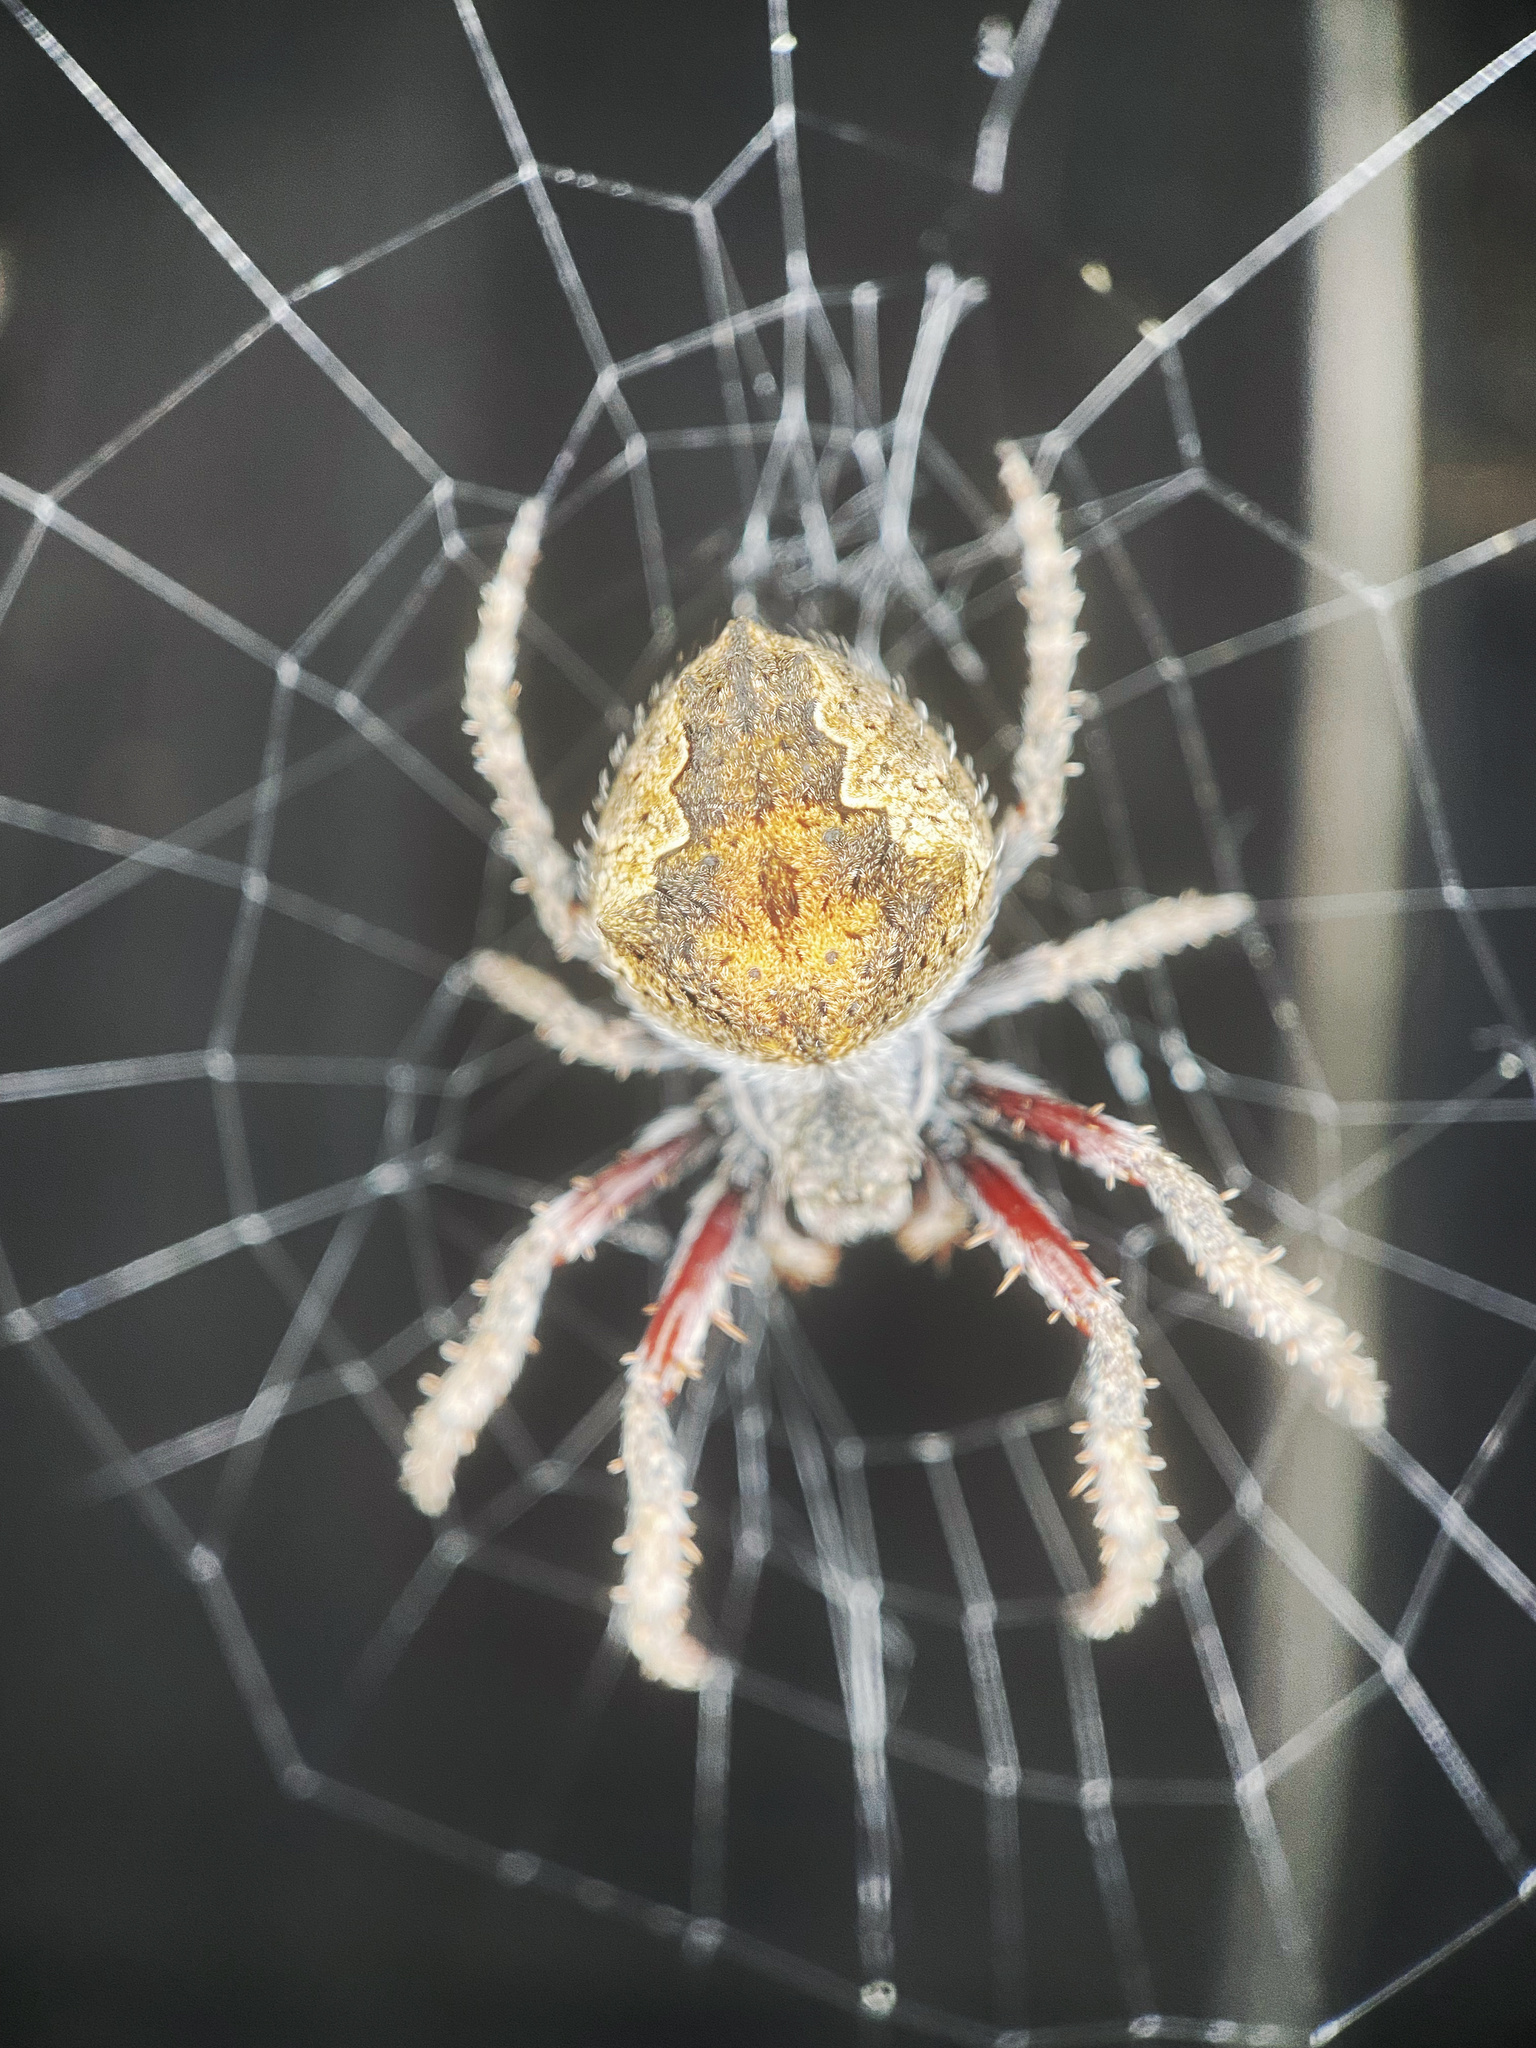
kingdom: Animalia
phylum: Arthropoda
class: Arachnida
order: Araneae
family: Araneidae
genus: Eriophora
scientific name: Eriophora pustulosa
